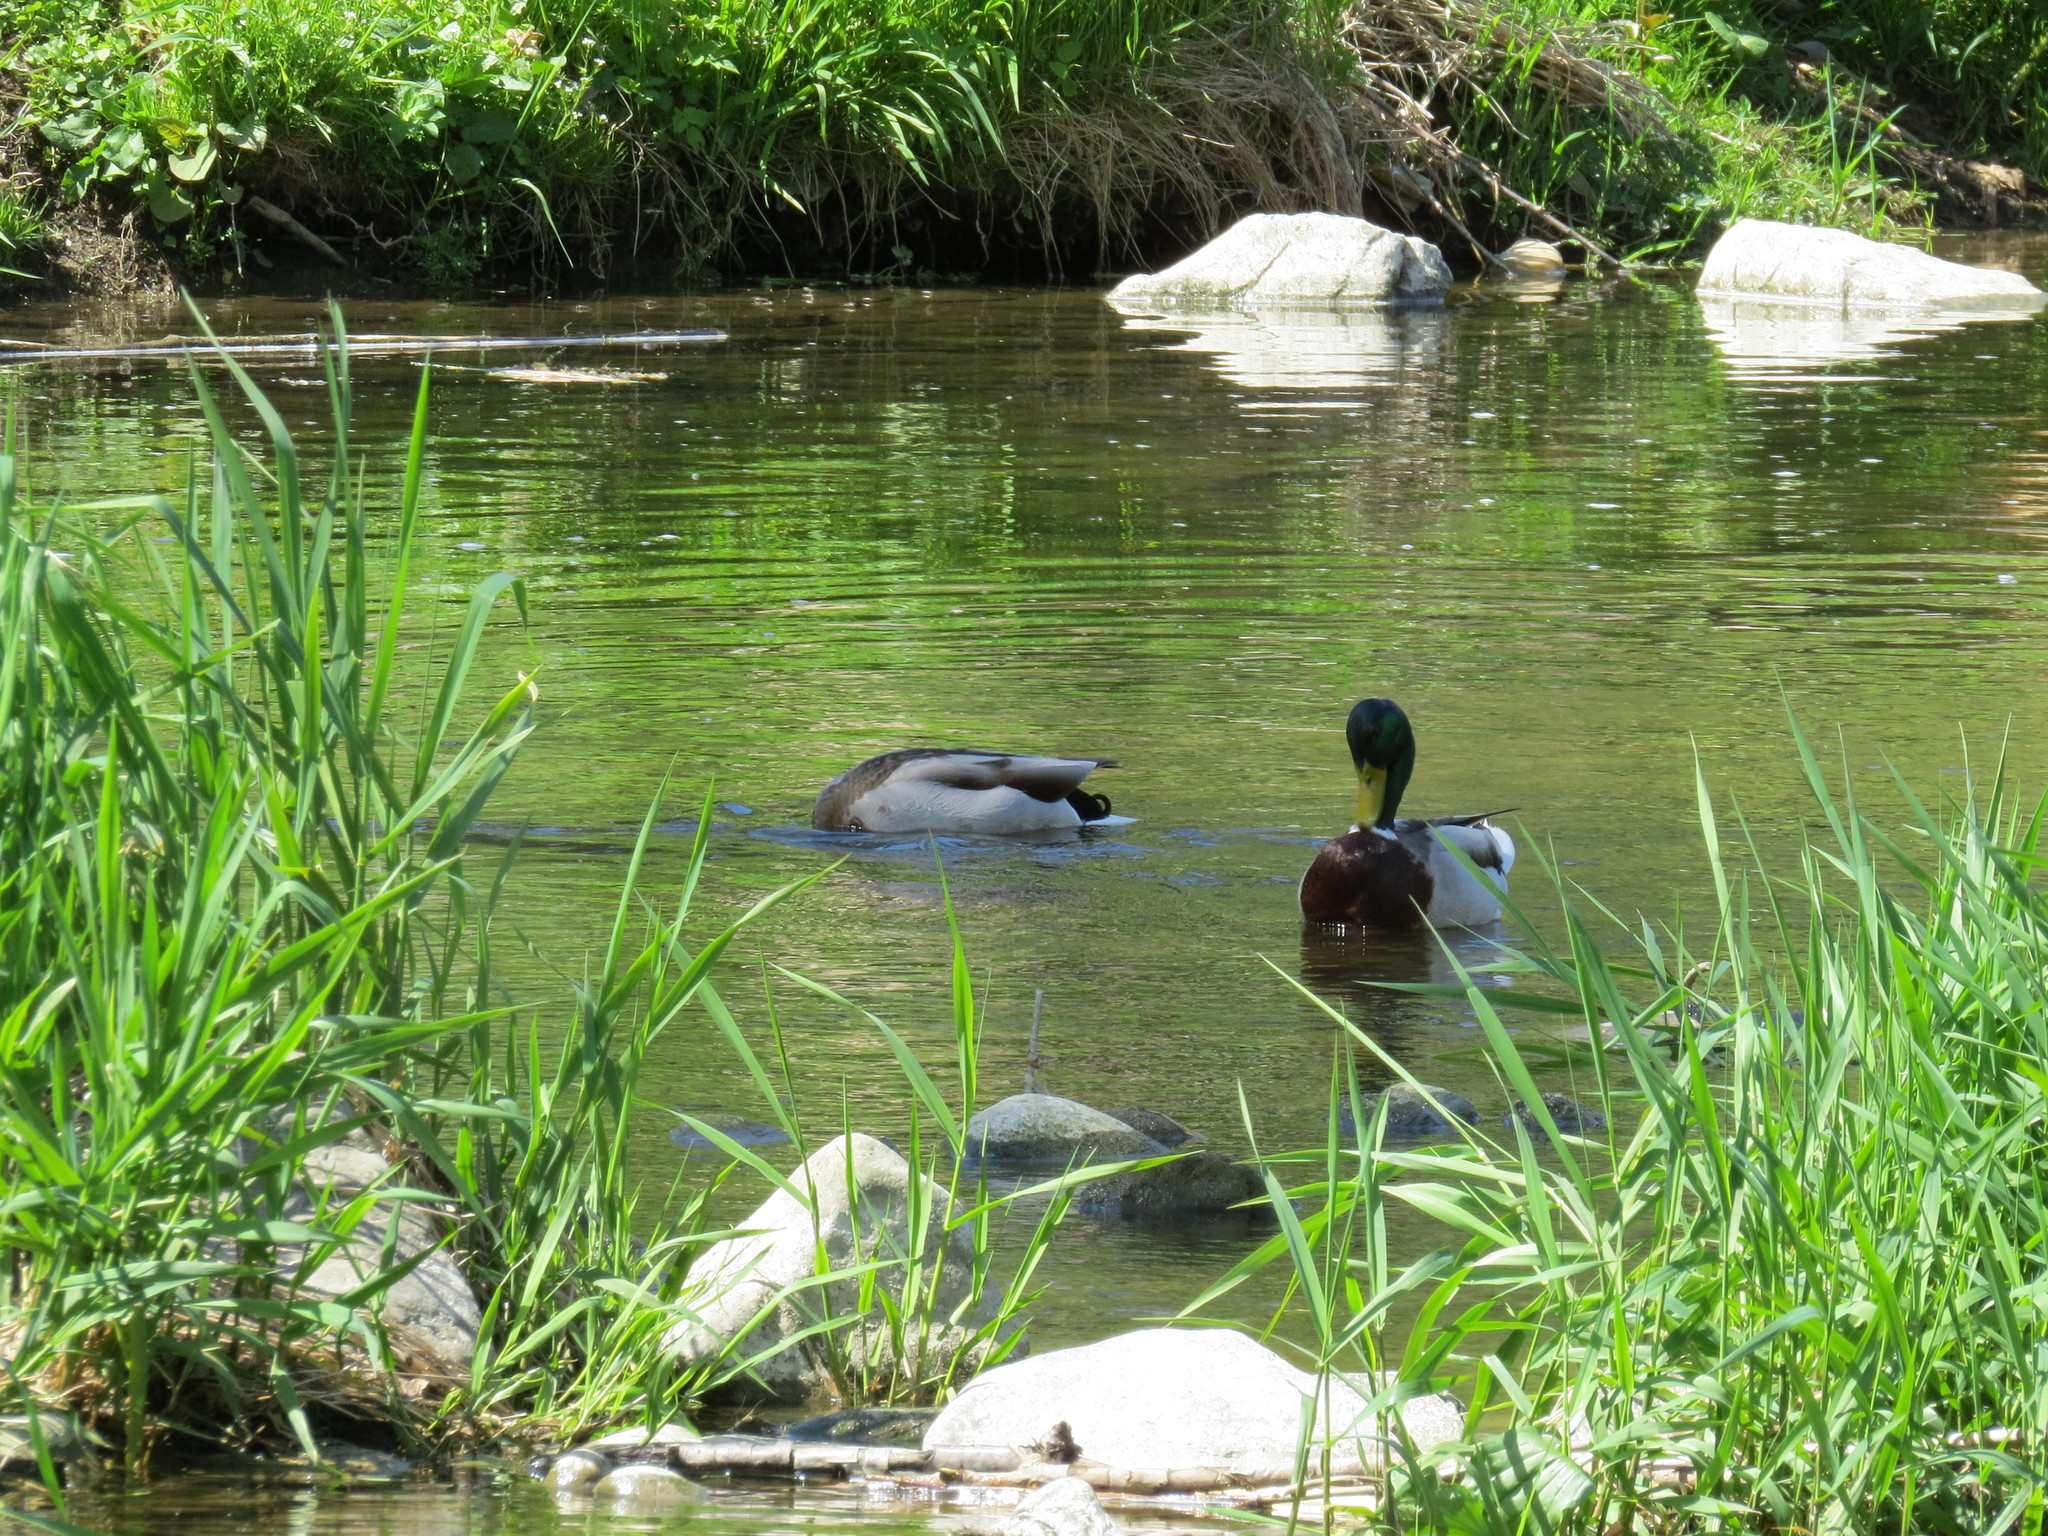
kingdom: Animalia
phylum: Chordata
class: Aves
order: Anseriformes
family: Anatidae
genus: Anas
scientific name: Anas platyrhynchos
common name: Mallard
